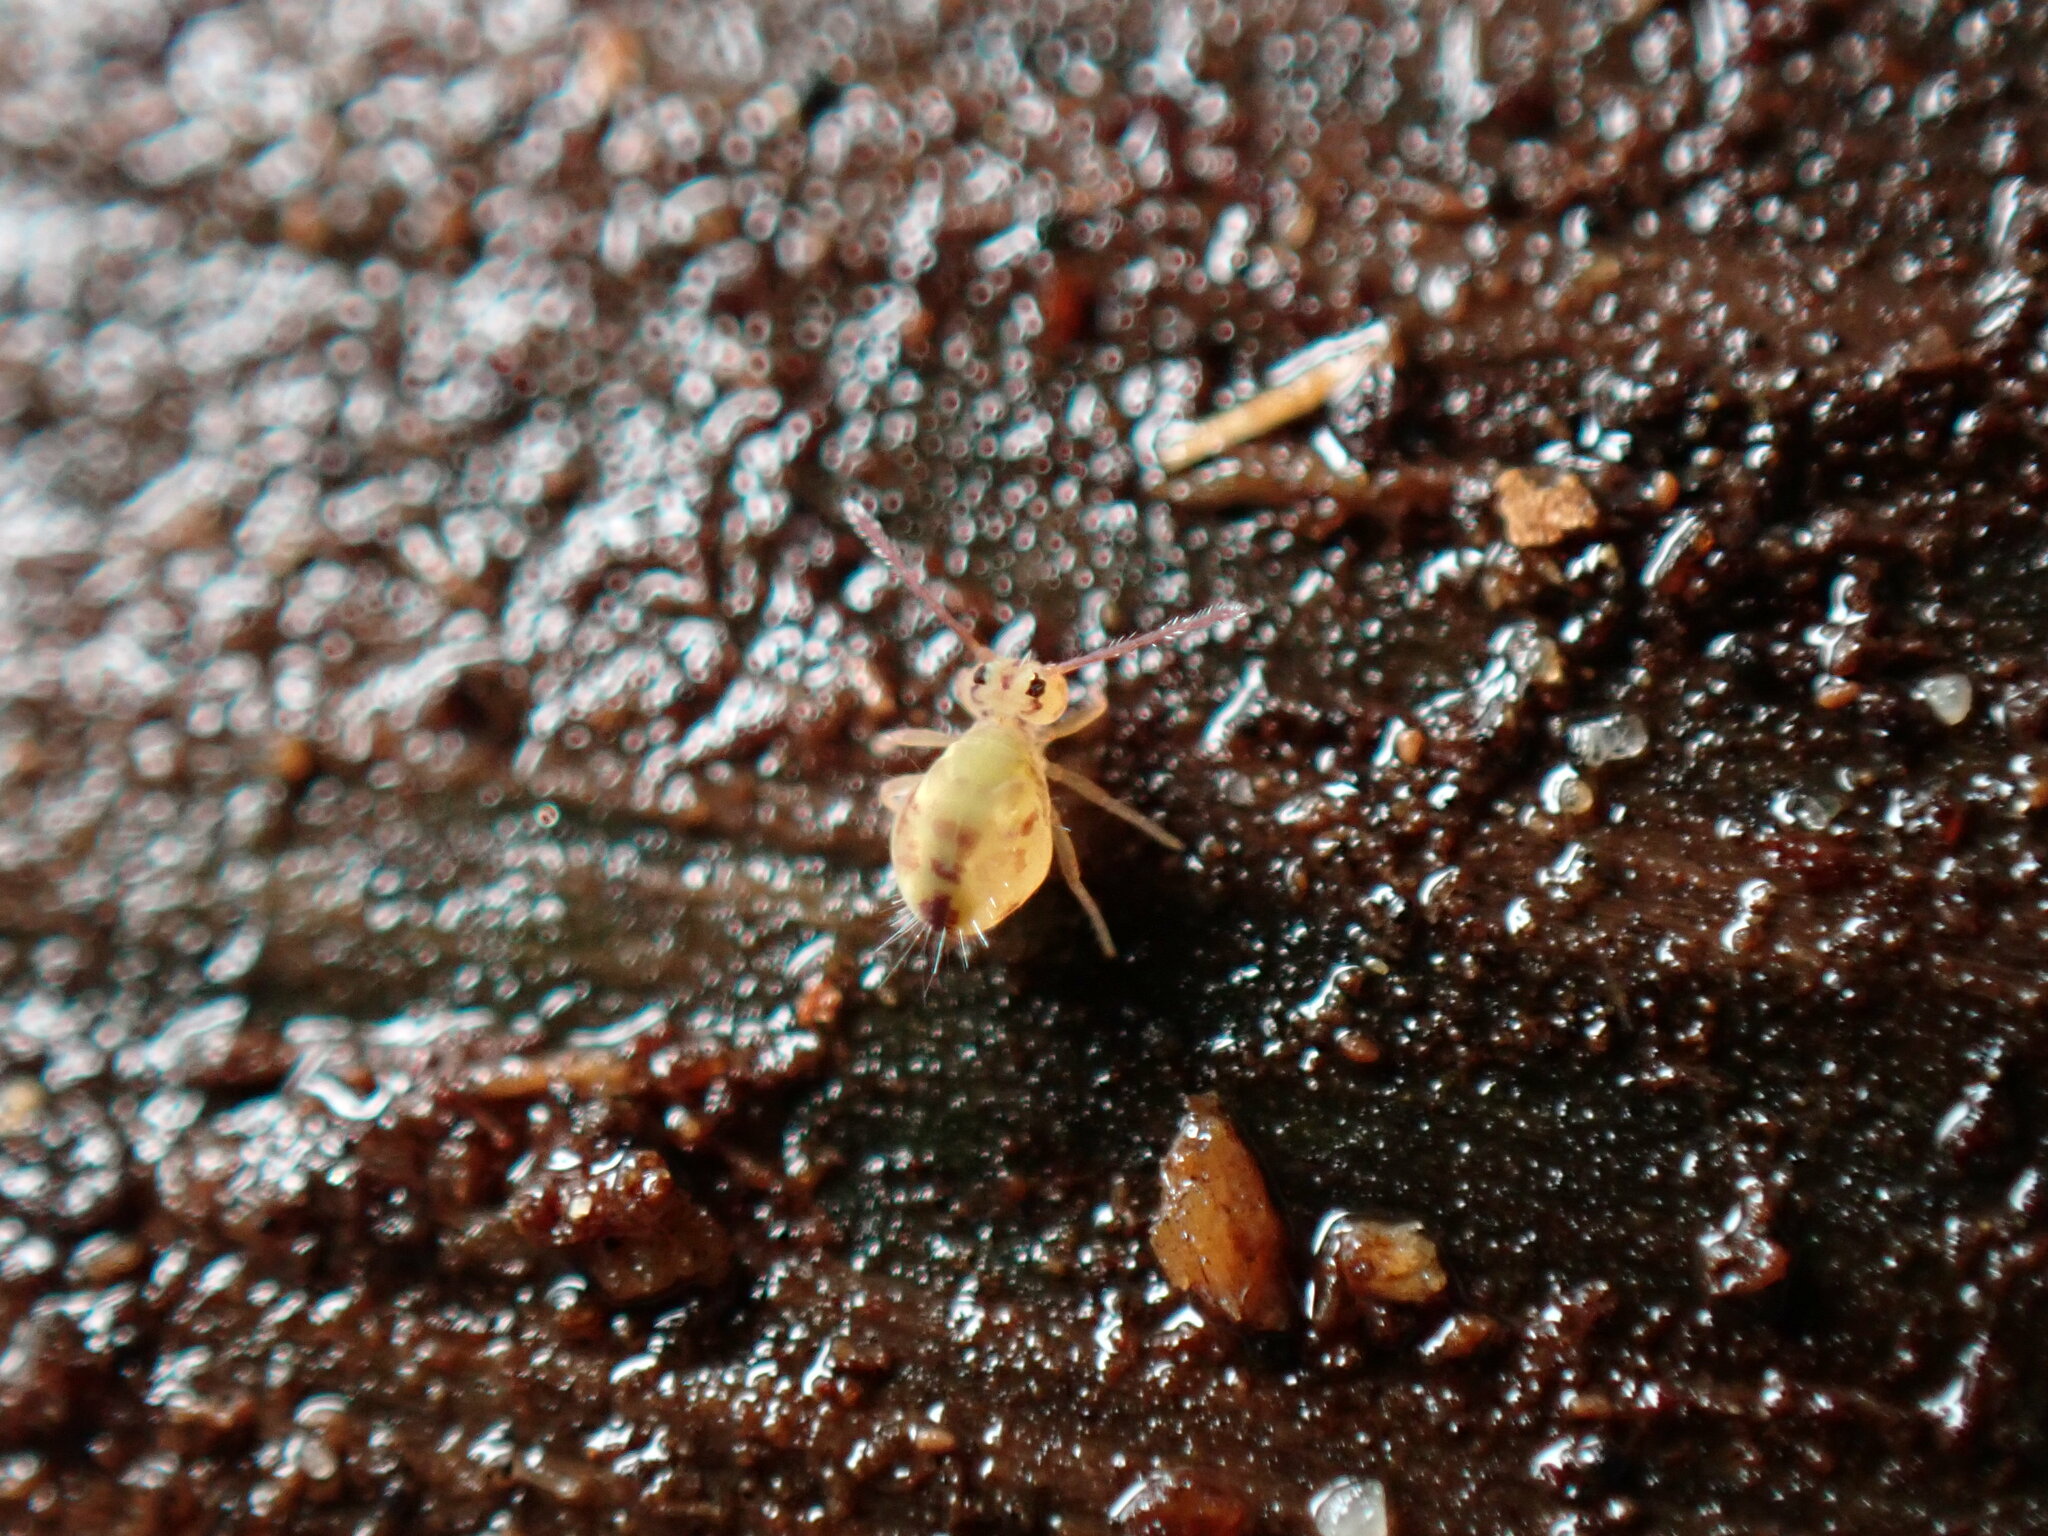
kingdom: Animalia
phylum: Arthropoda
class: Collembola
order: Symphypleona
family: Dicyrtomidae
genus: Dicyrtomina
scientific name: Dicyrtomina minuta
